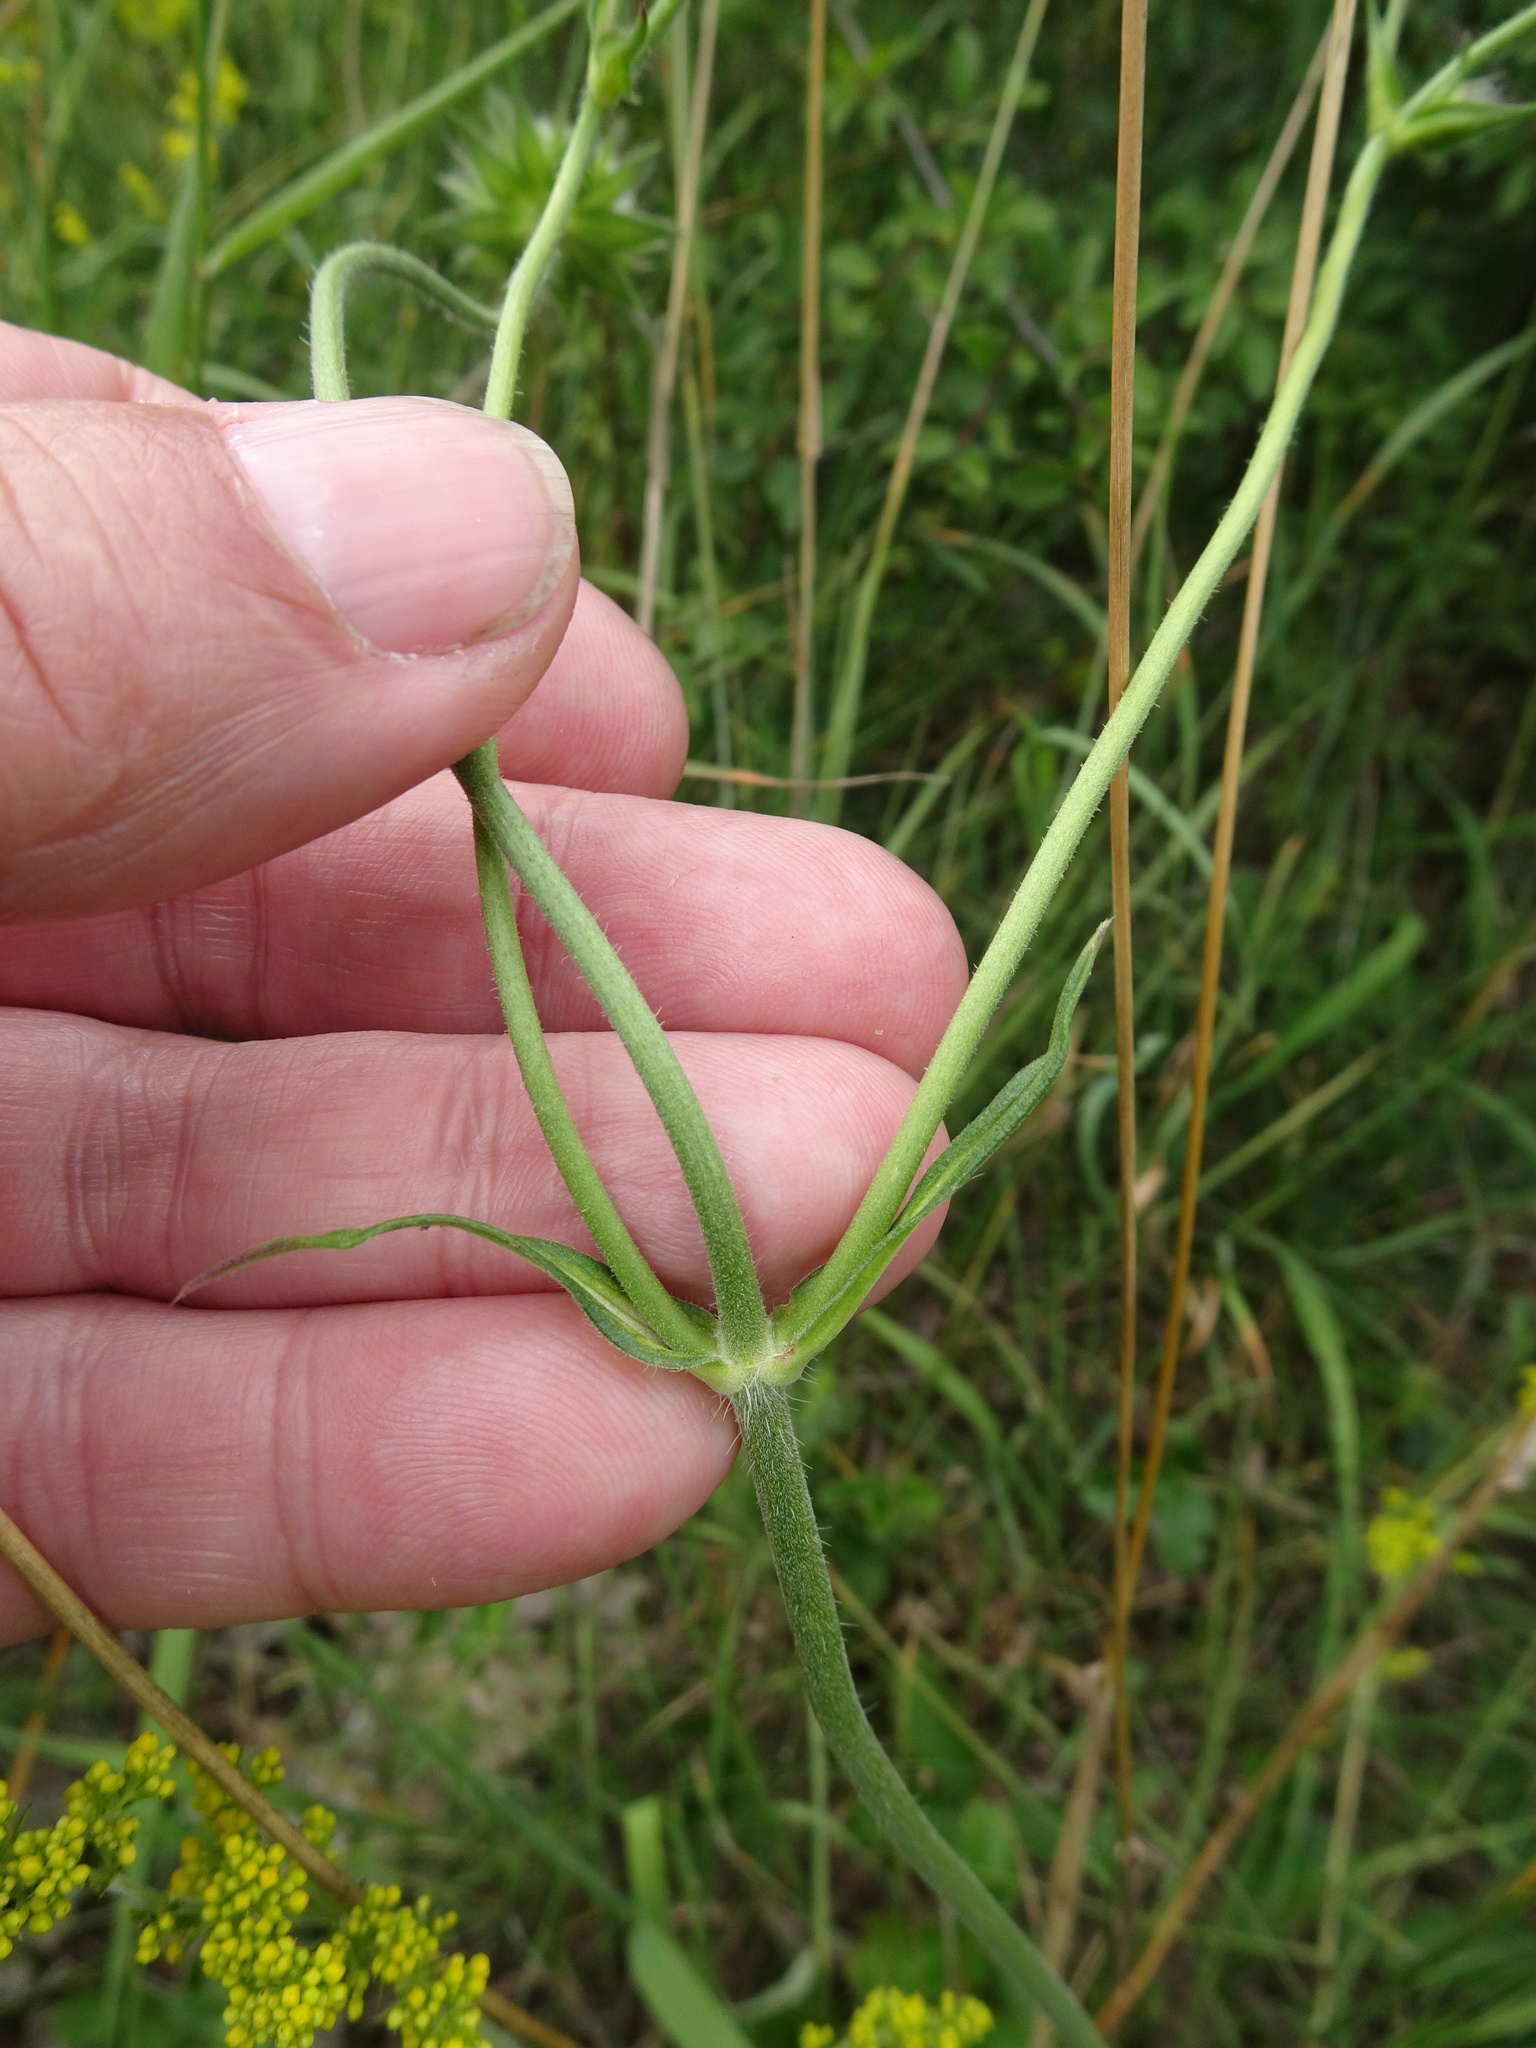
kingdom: Plantae
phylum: Tracheophyta
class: Magnoliopsida
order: Dipsacales
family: Caprifoliaceae
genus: Knautia
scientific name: Knautia arvensis
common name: Field scabiosa
